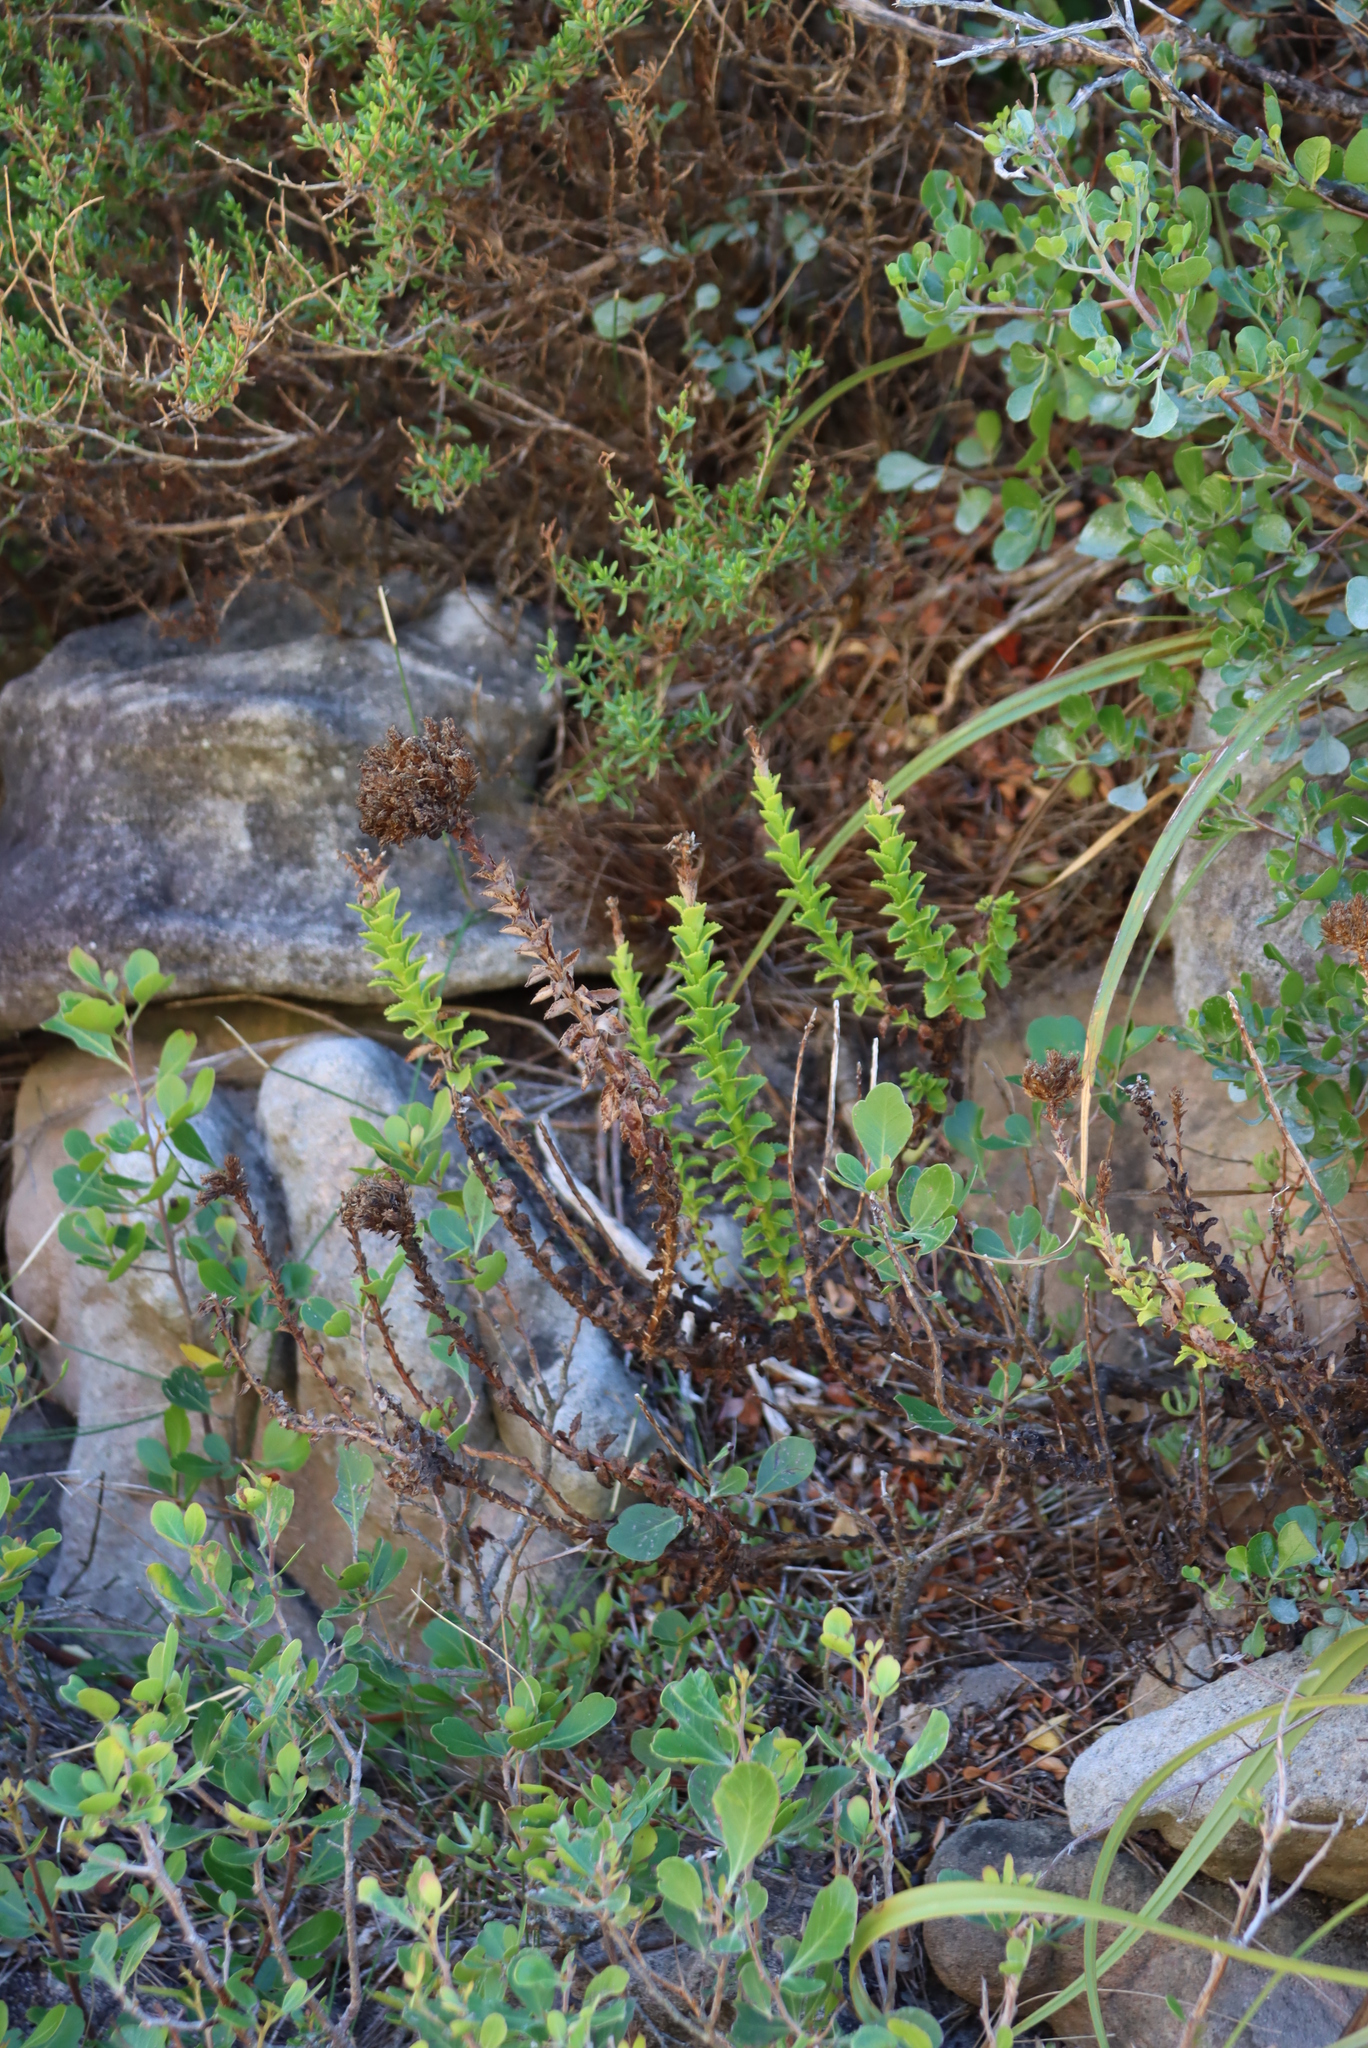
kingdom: Plantae
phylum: Tracheophyta
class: Magnoliopsida
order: Lamiales
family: Scrophulariaceae
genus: Pseudoselago
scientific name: Pseudoselago serrata
